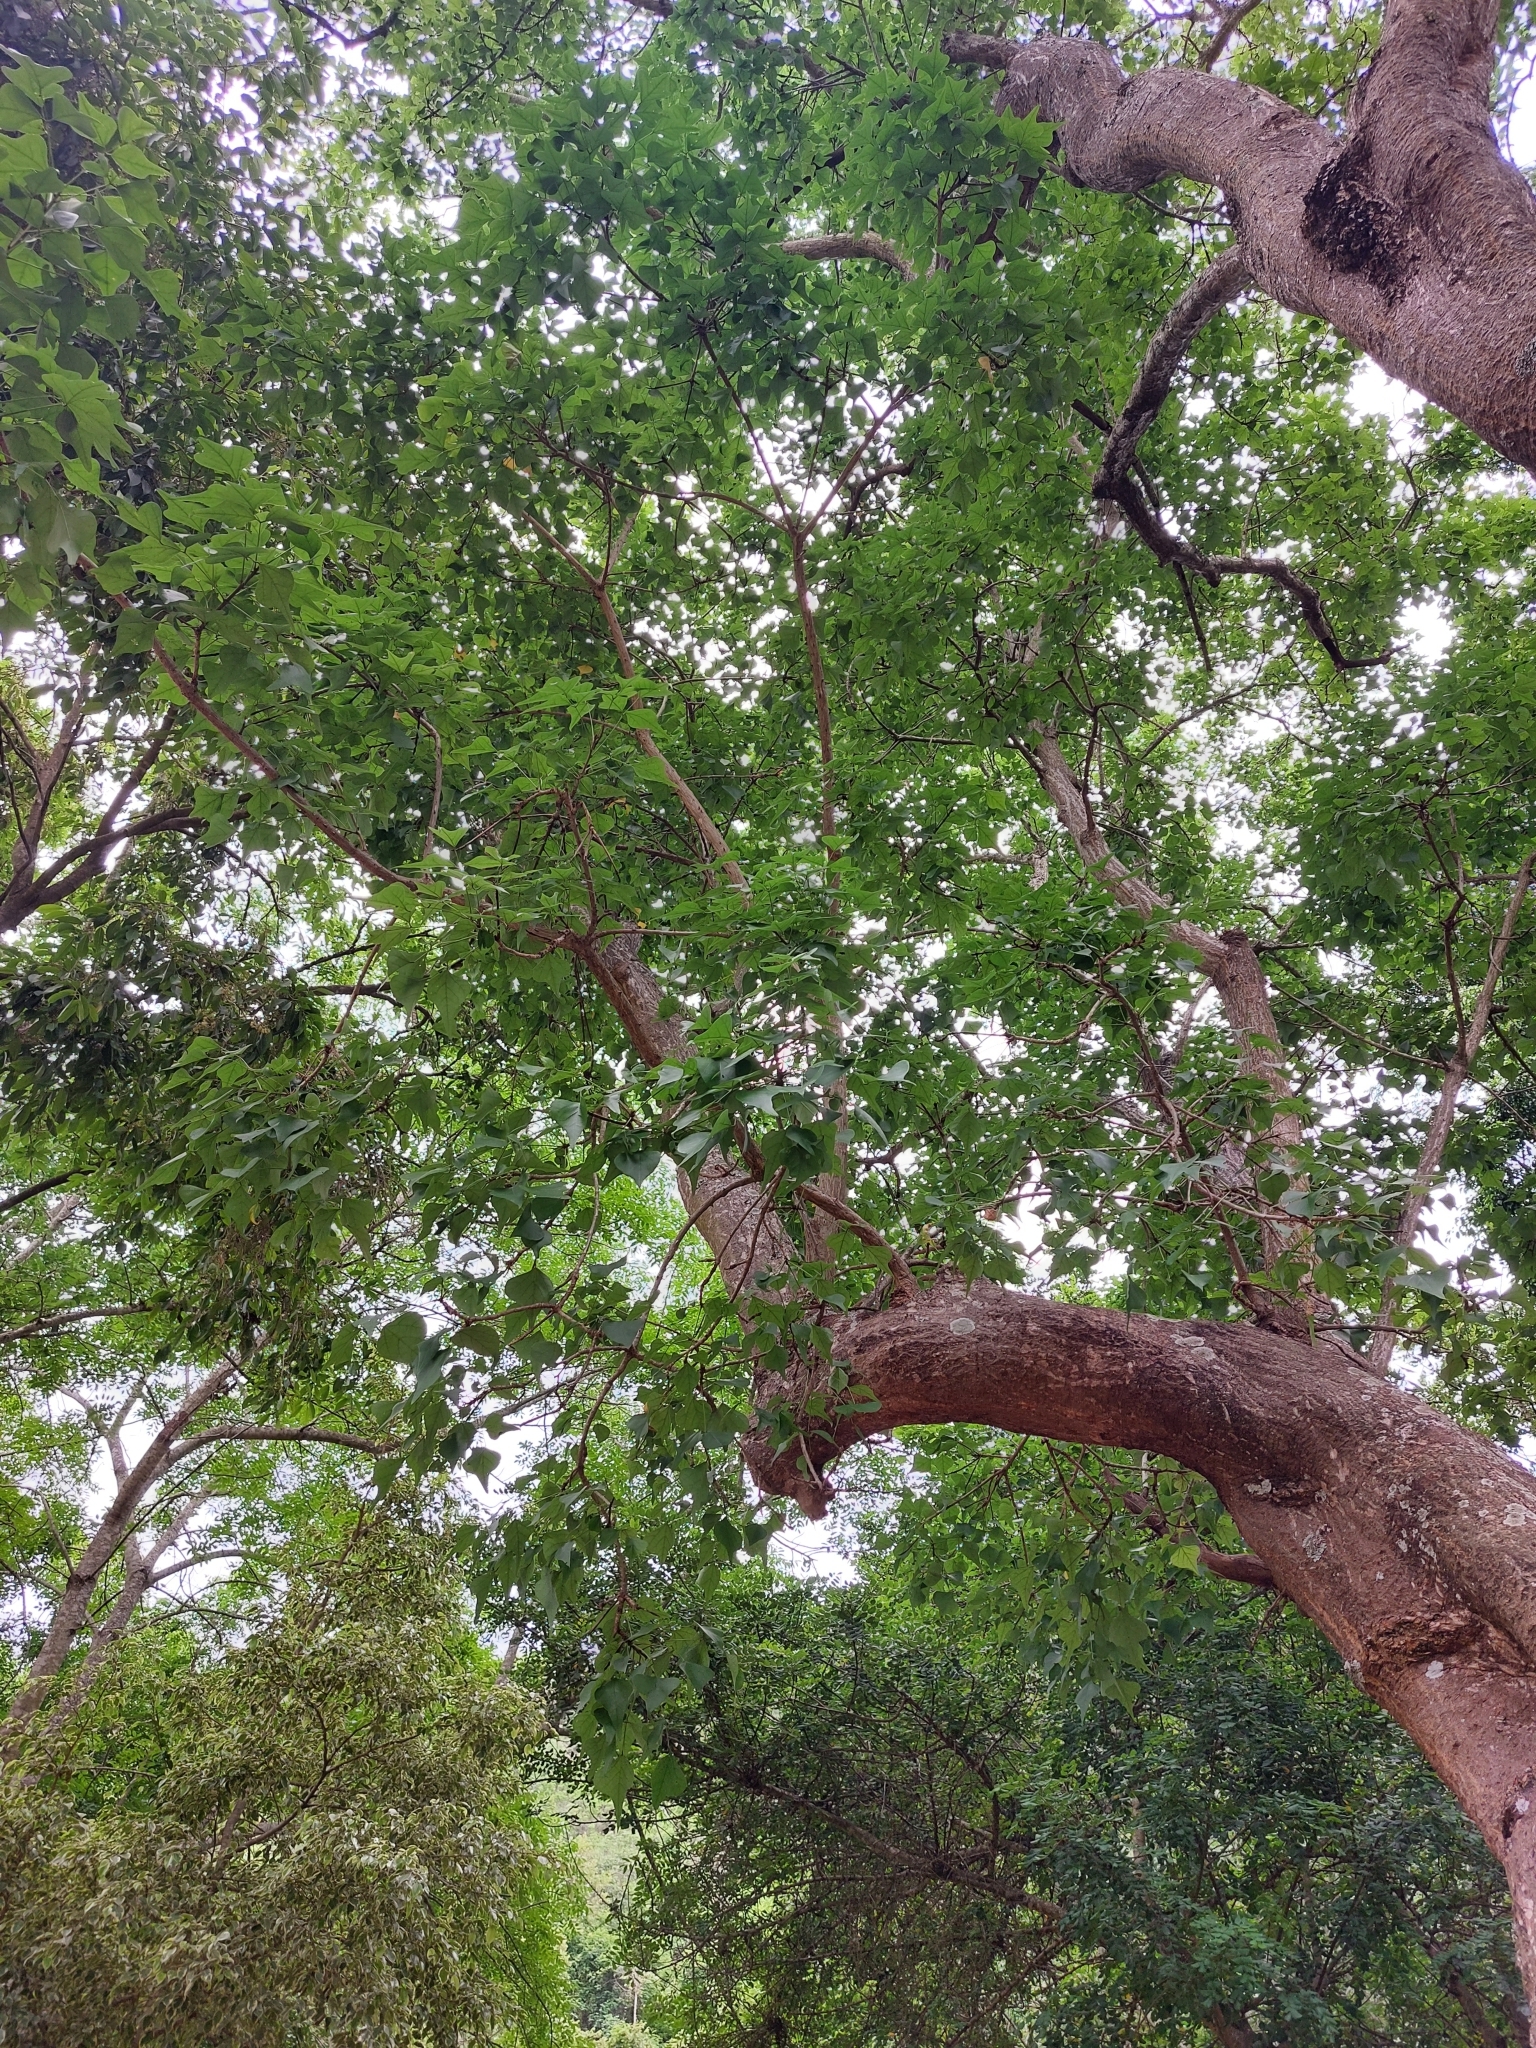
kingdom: Plantae
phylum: Tracheophyta
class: Magnoliopsida
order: Fabales
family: Fabaceae
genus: Erythrina
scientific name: Erythrina lysistemon
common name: Common coral tree
